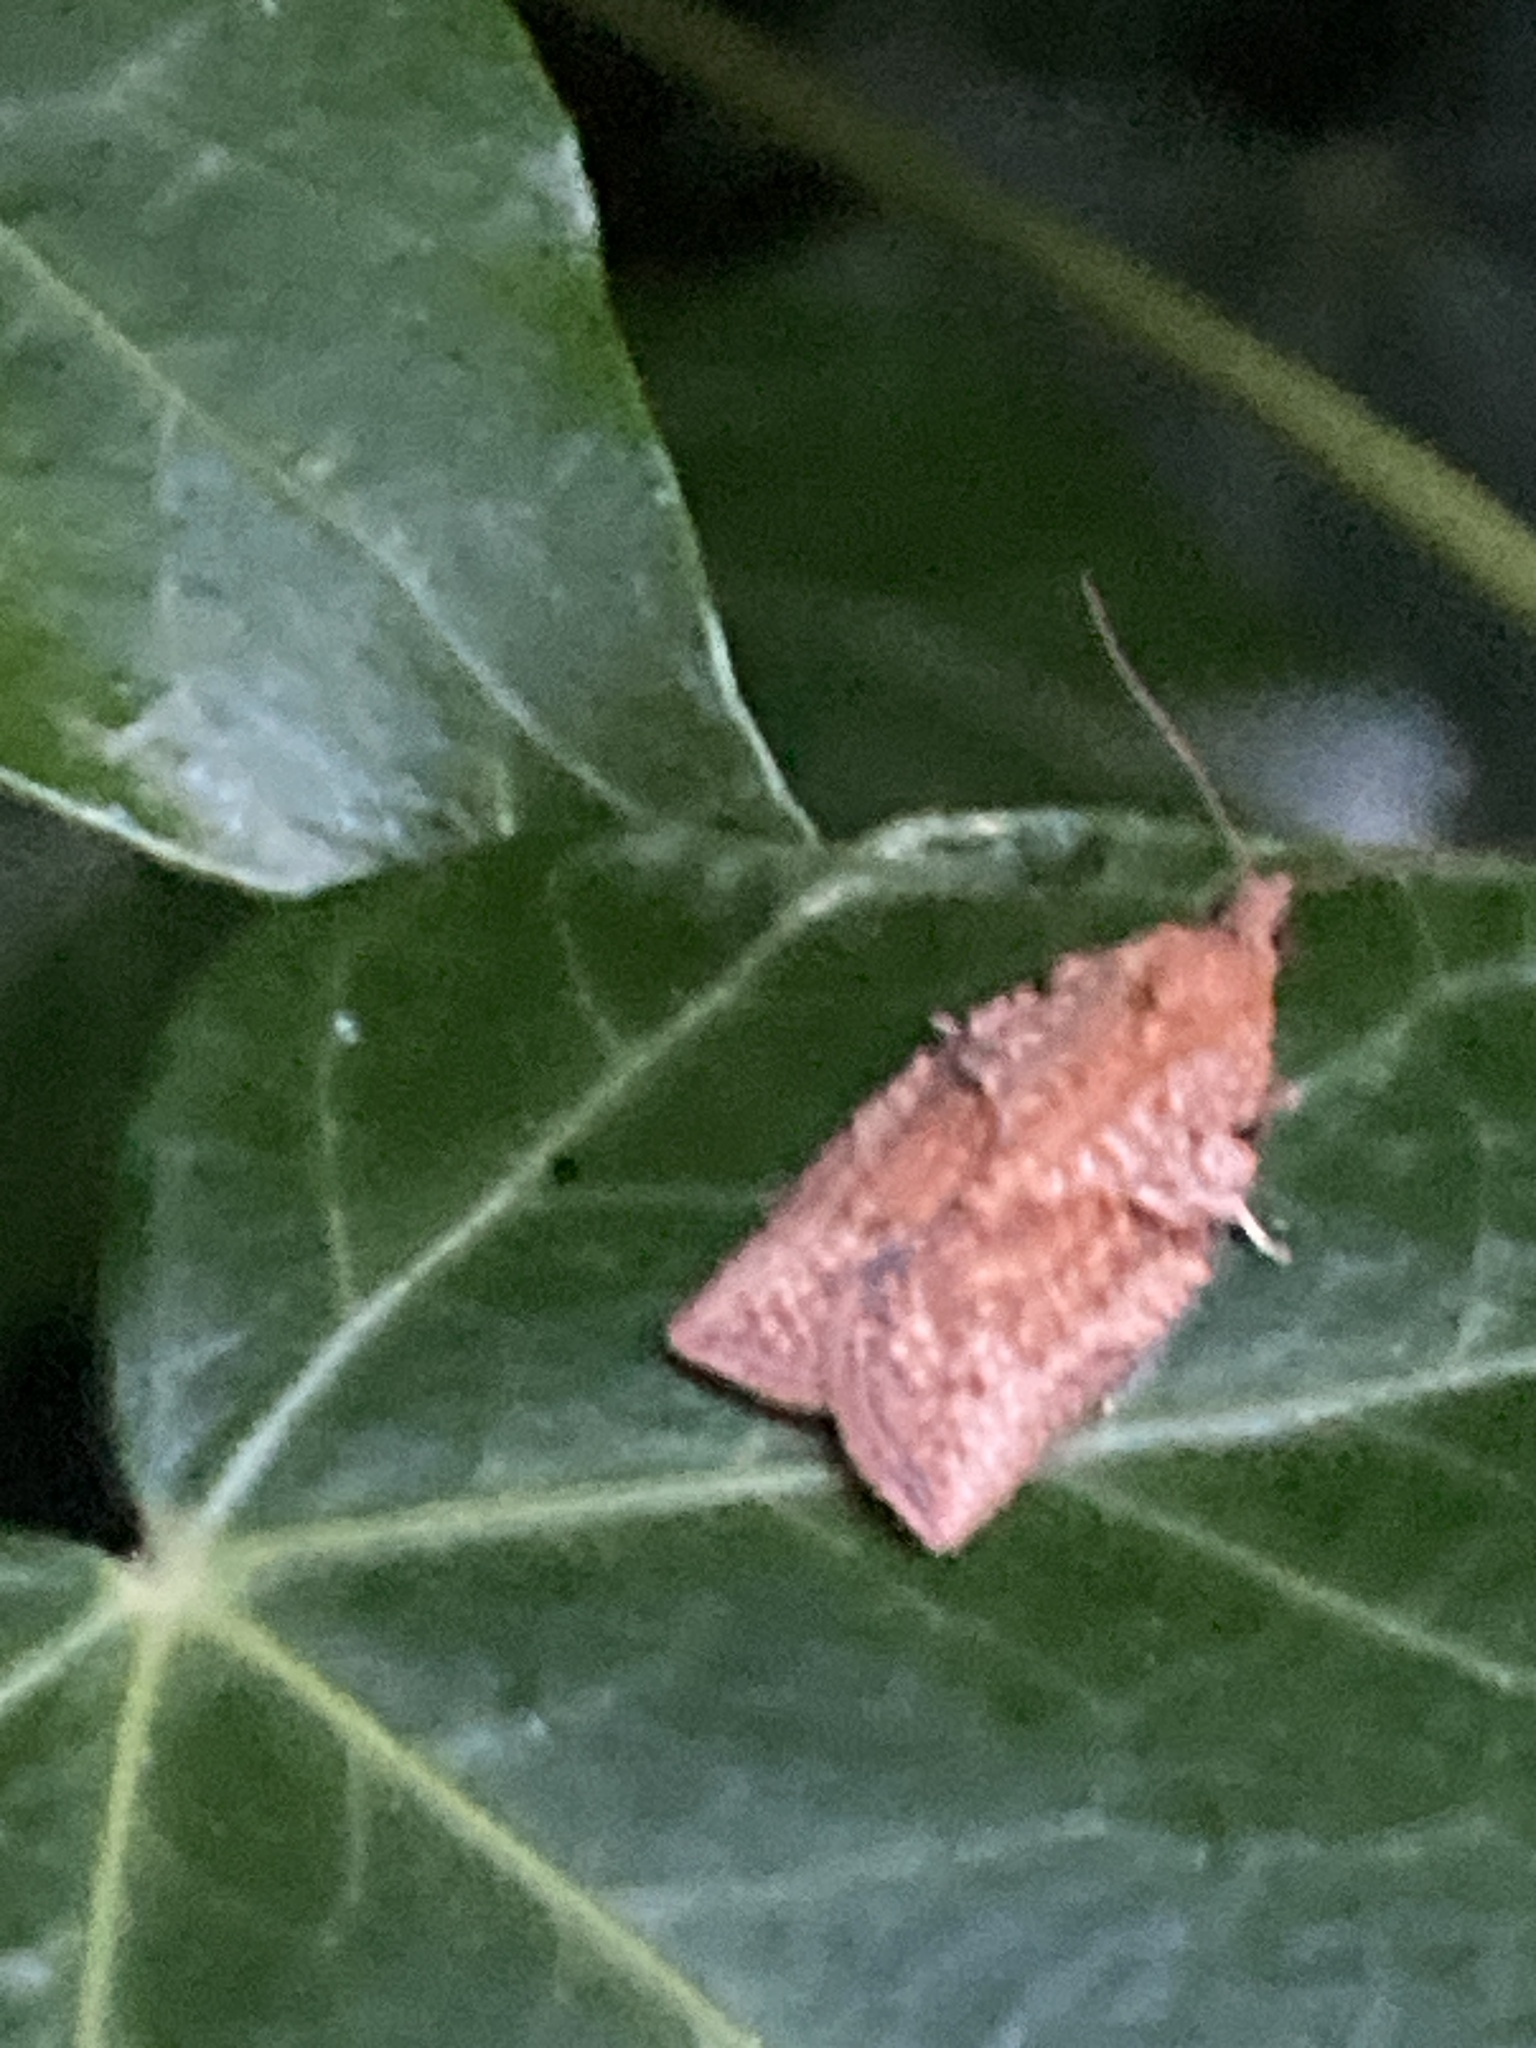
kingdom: Animalia
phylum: Arthropoda
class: Insecta
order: Lepidoptera
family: Tortricidae
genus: Epiphyas
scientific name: Epiphyas postvittana
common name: Light brown apple moth
